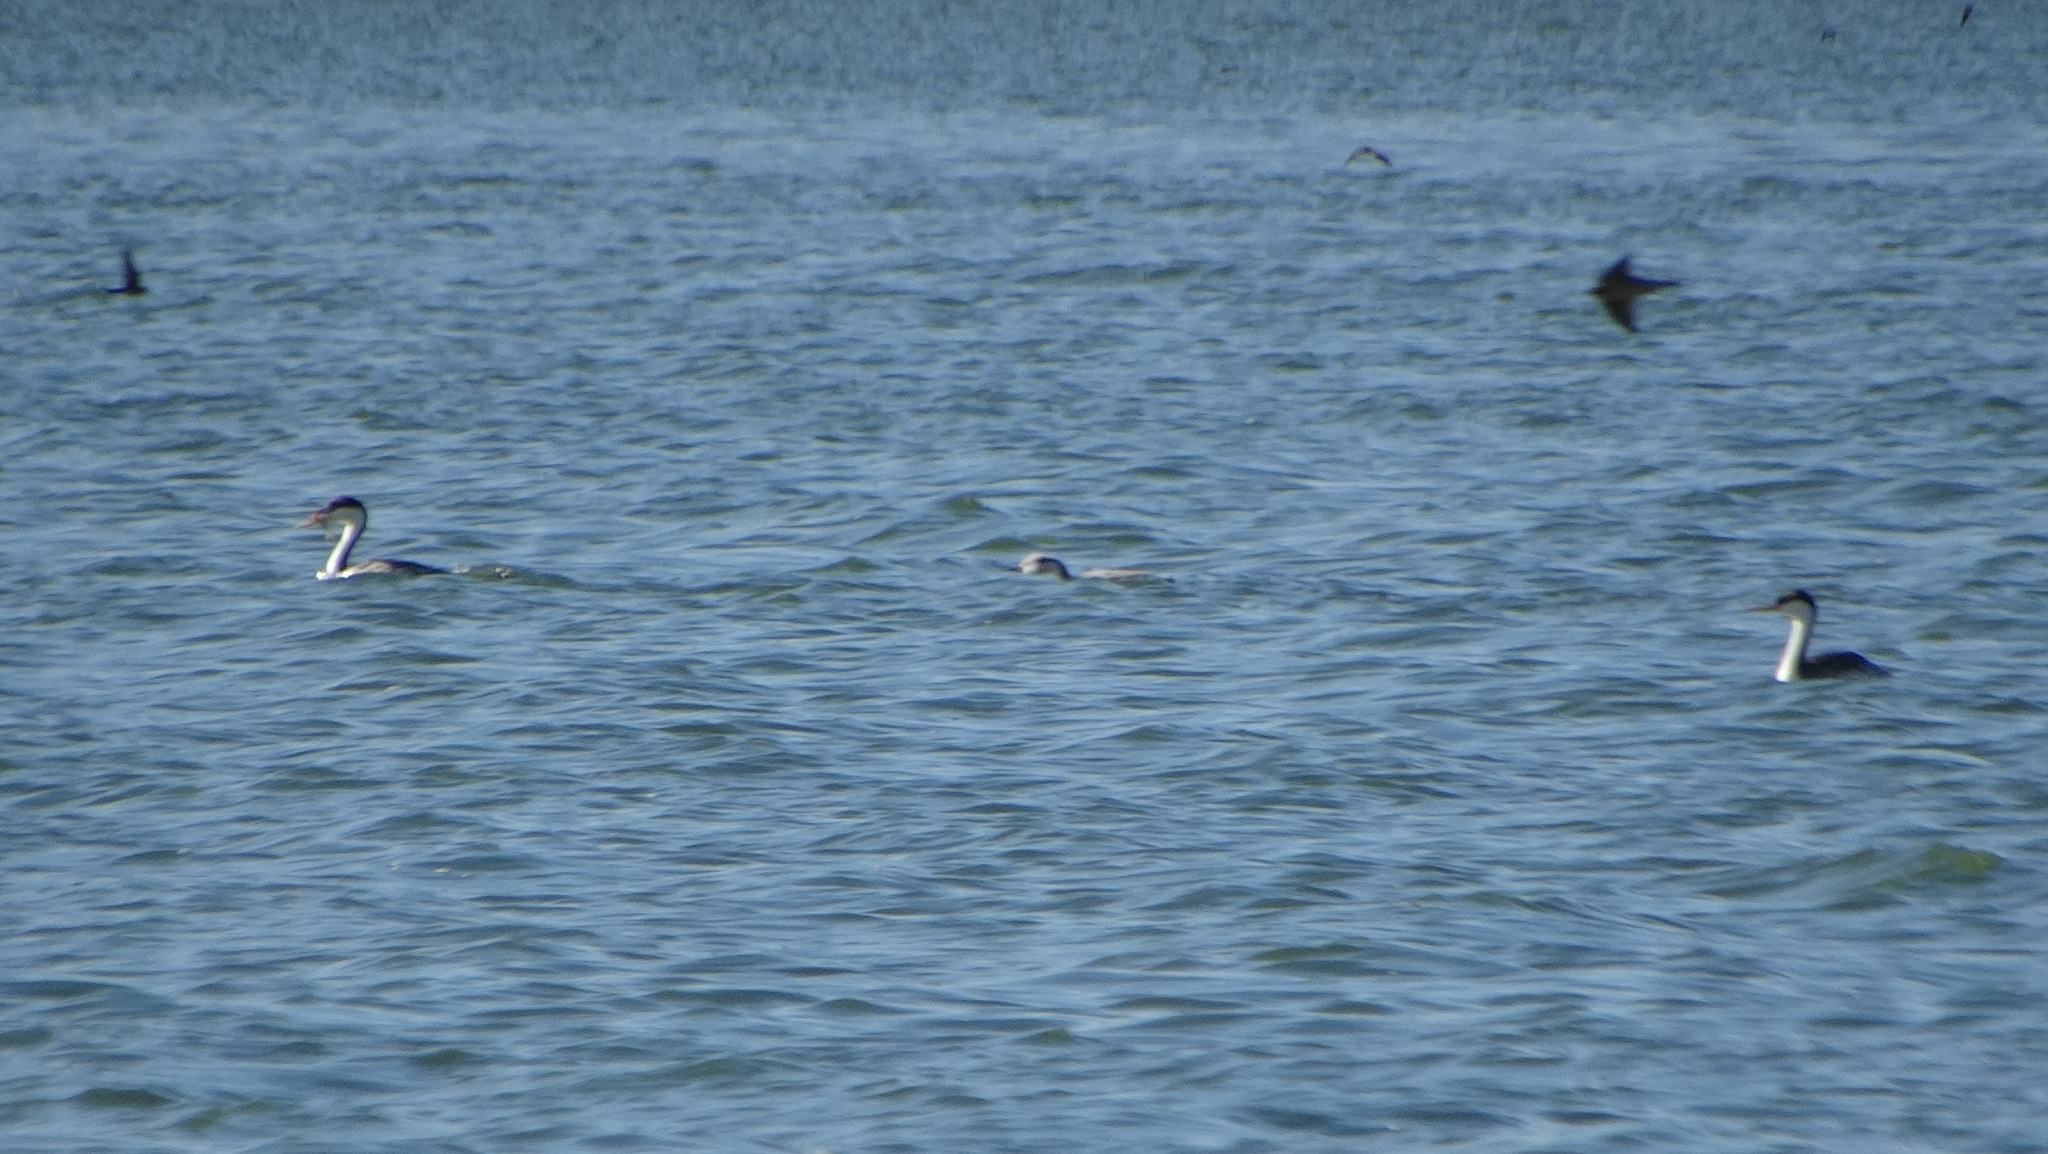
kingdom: Animalia
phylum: Chordata
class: Aves
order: Podicipediformes
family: Podicipedidae
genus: Aechmophorus
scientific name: Aechmophorus occidentalis
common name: Western grebe
